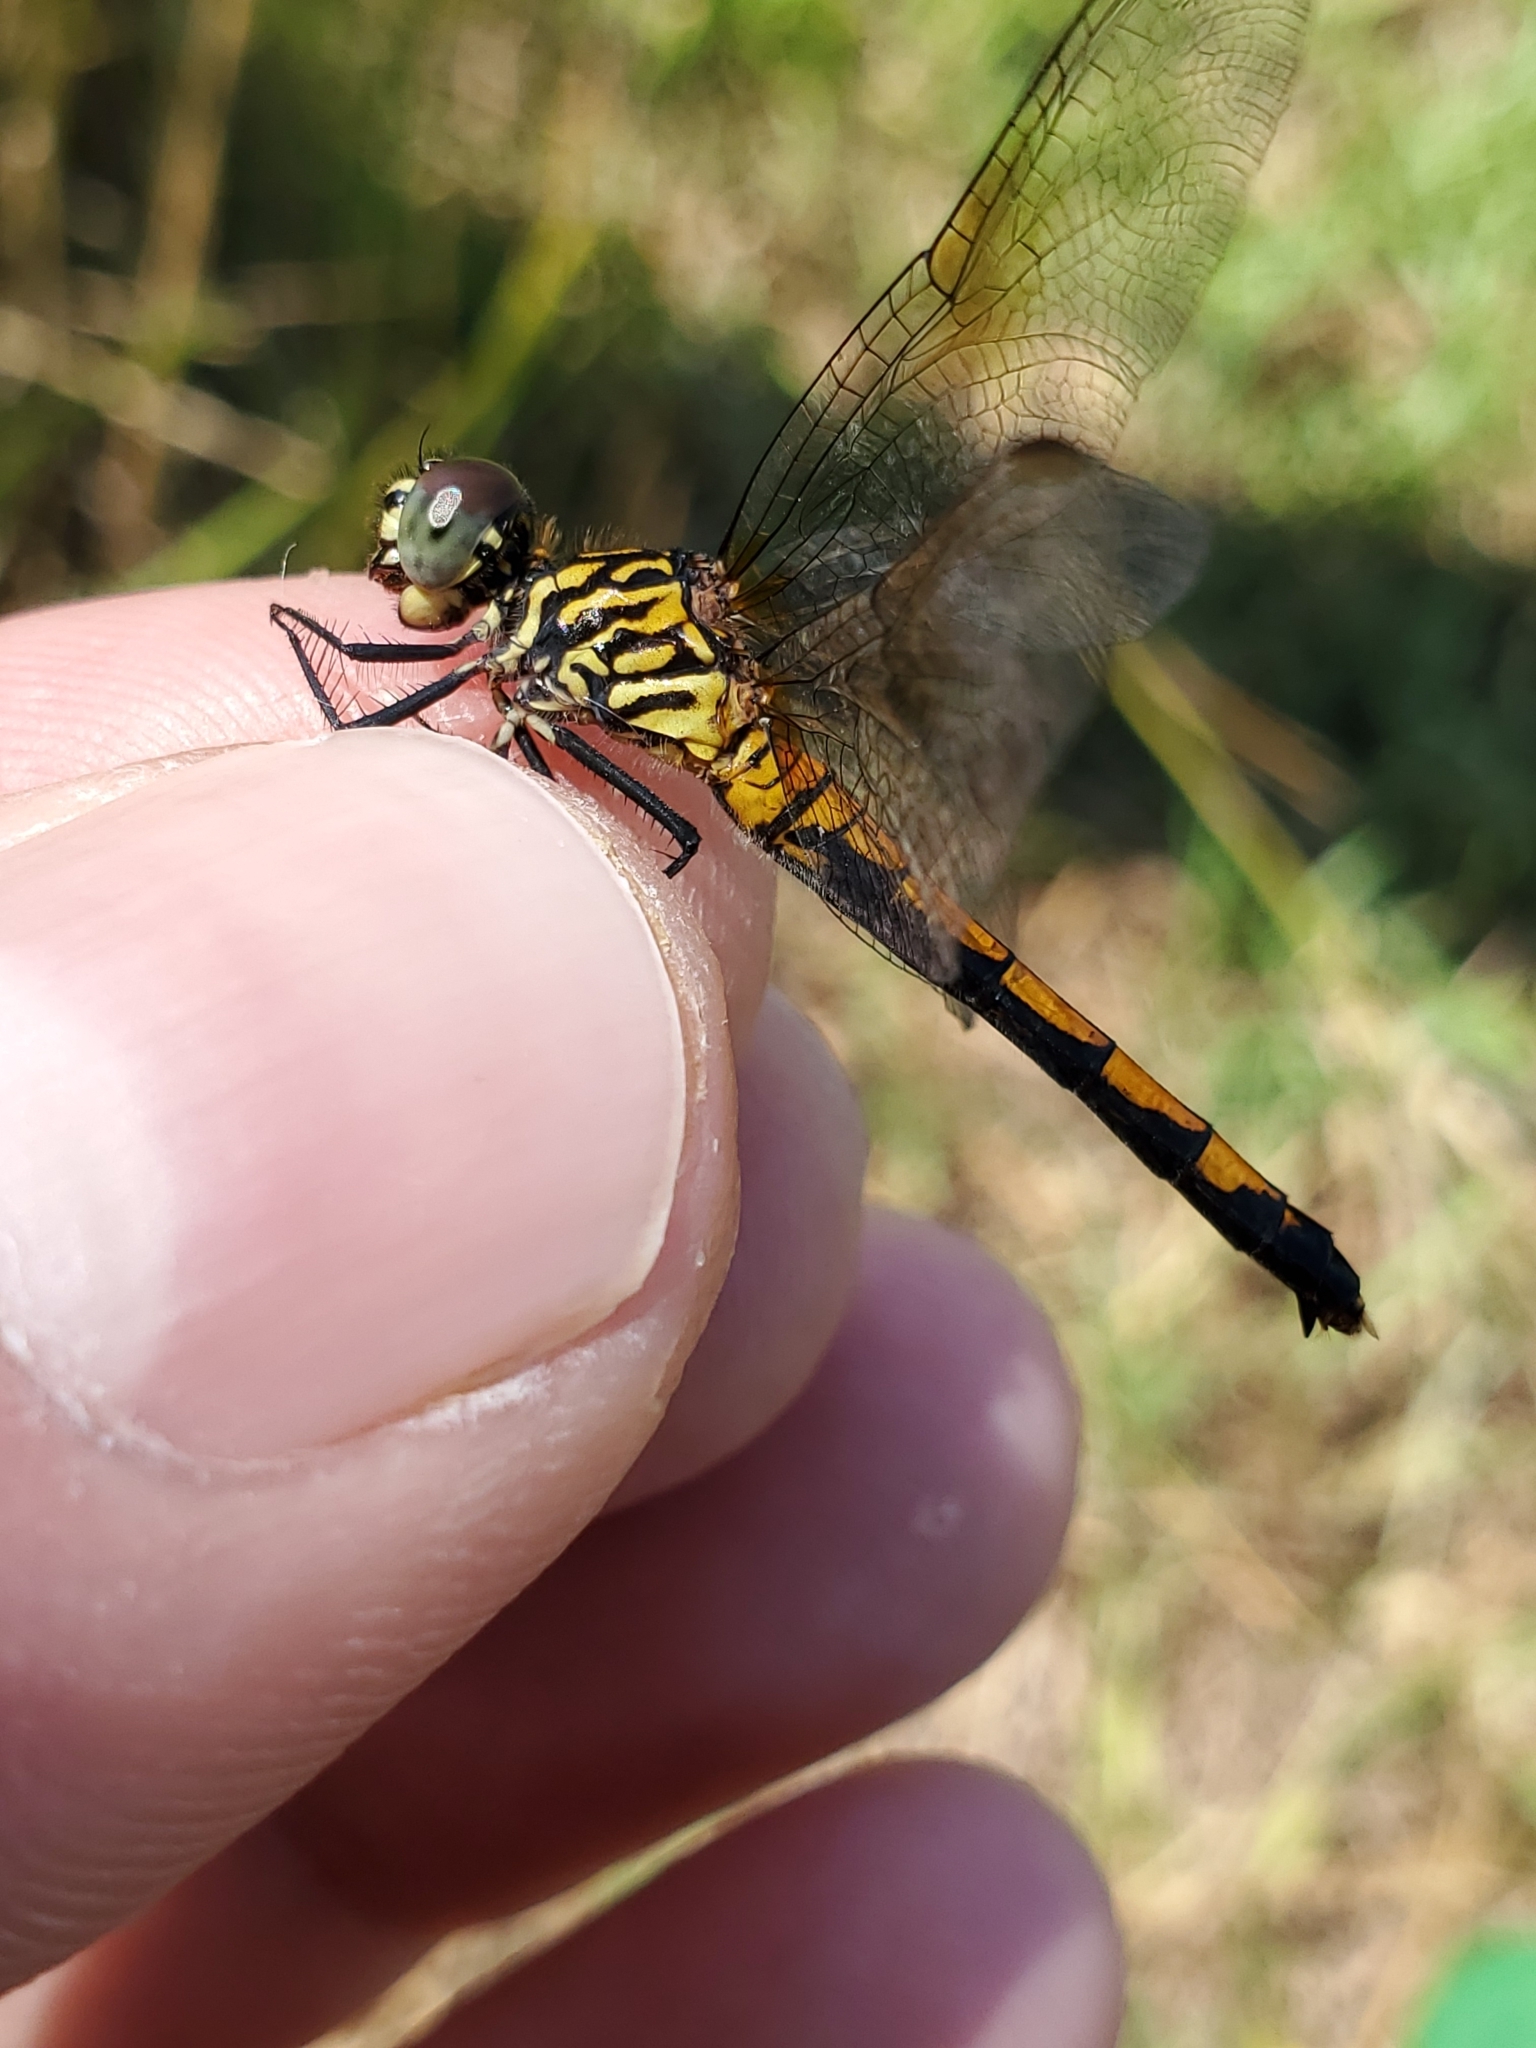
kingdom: Animalia
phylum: Arthropoda
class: Insecta
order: Odonata
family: Libellulidae
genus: Erythrodiplax
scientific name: Erythrodiplax berenice
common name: Seaside dragonlet
